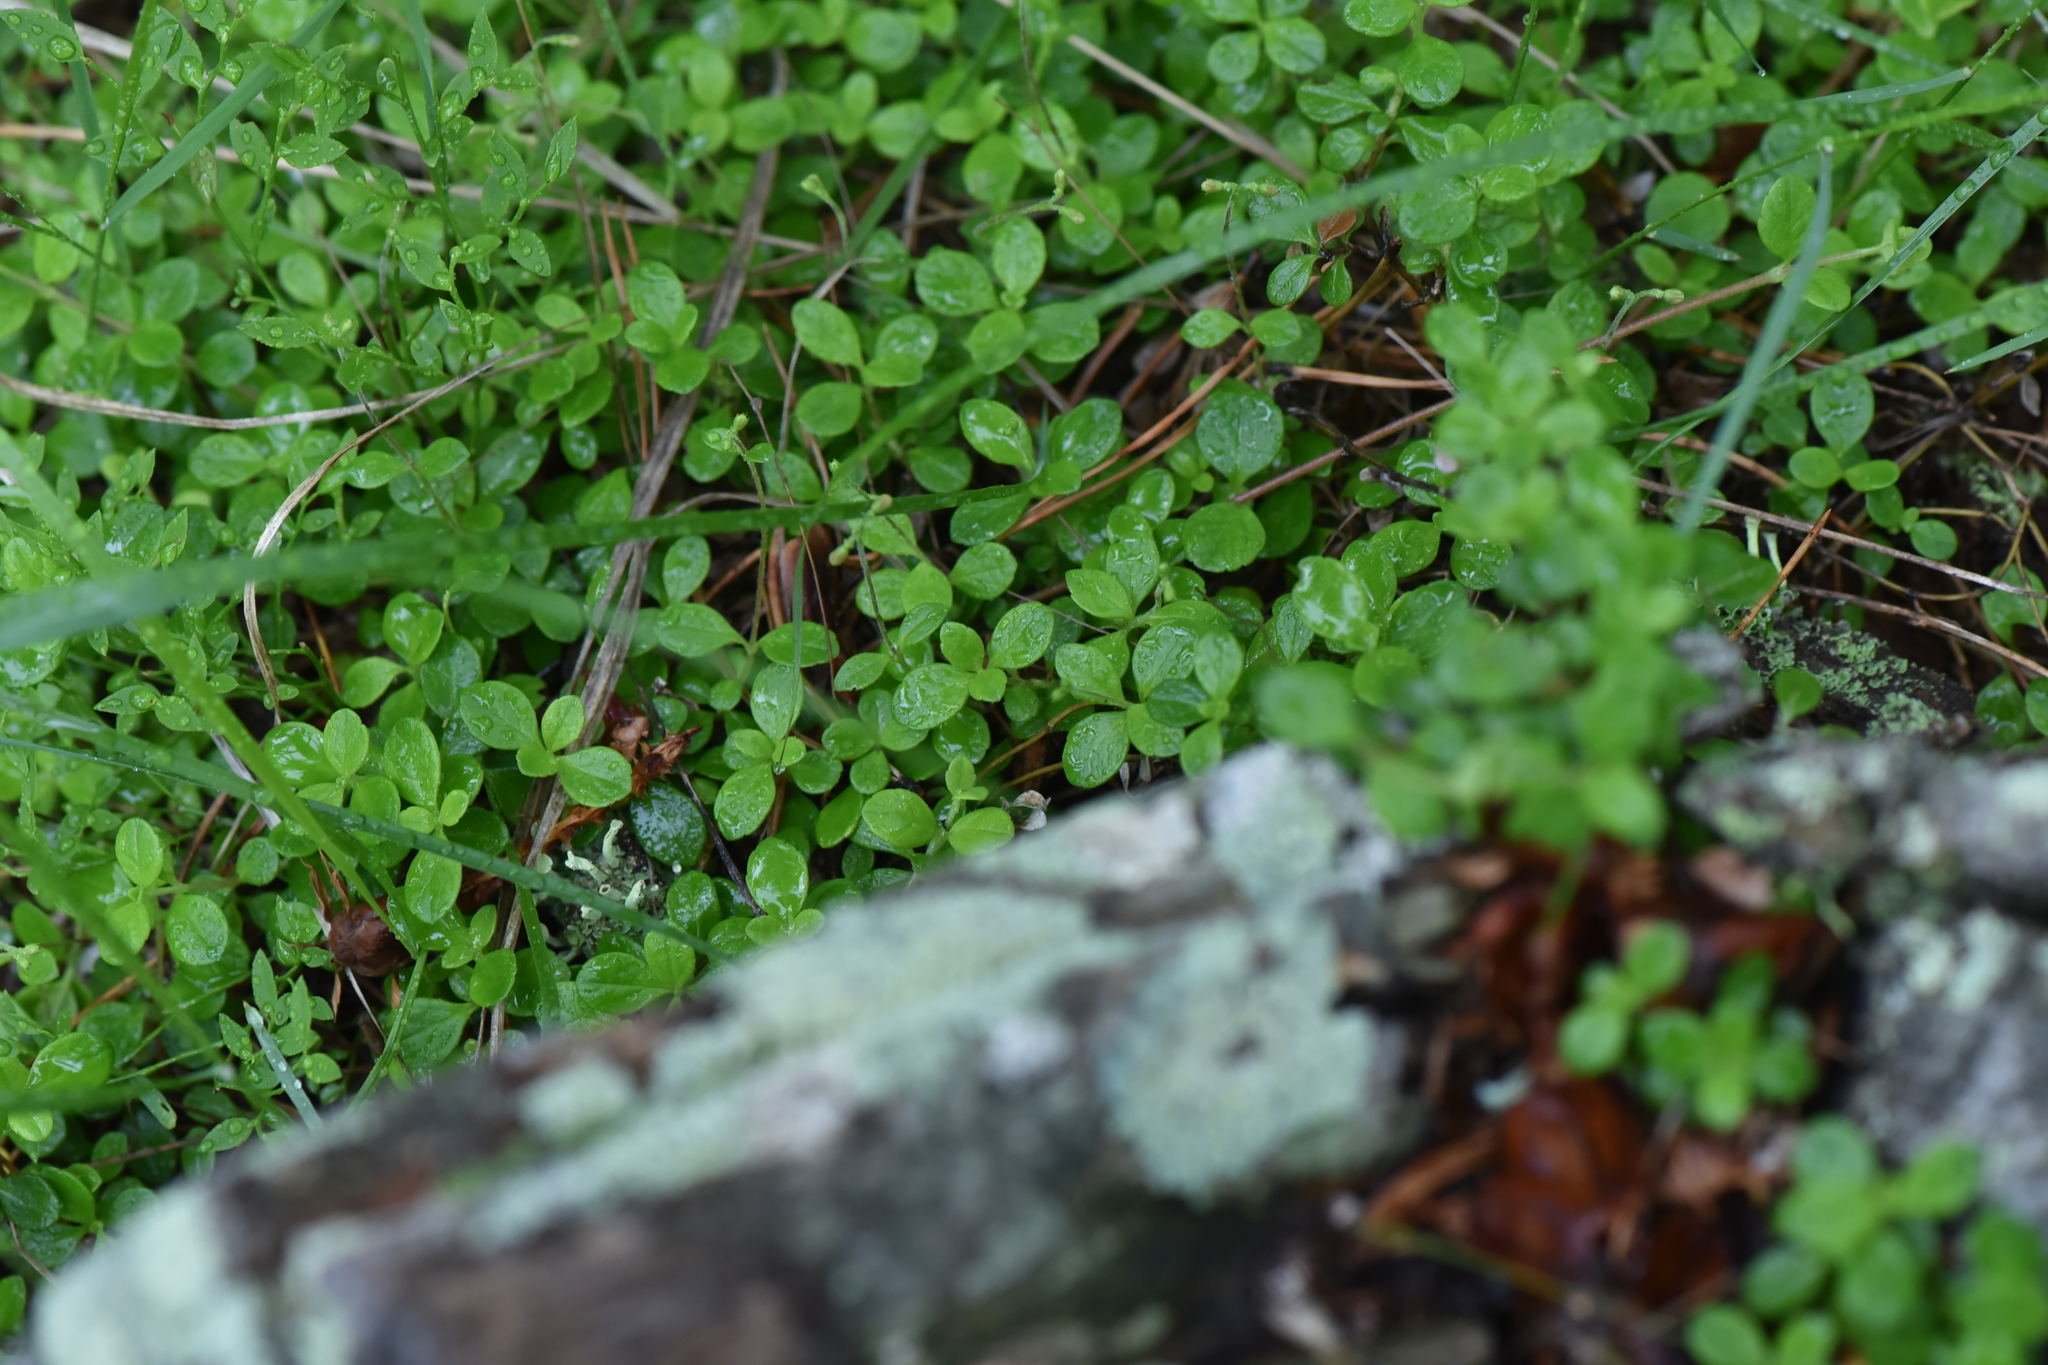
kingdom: Plantae
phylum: Tracheophyta
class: Magnoliopsida
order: Dipsacales
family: Caprifoliaceae
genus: Linnaea
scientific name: Linnaea borealis
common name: Twinflower
